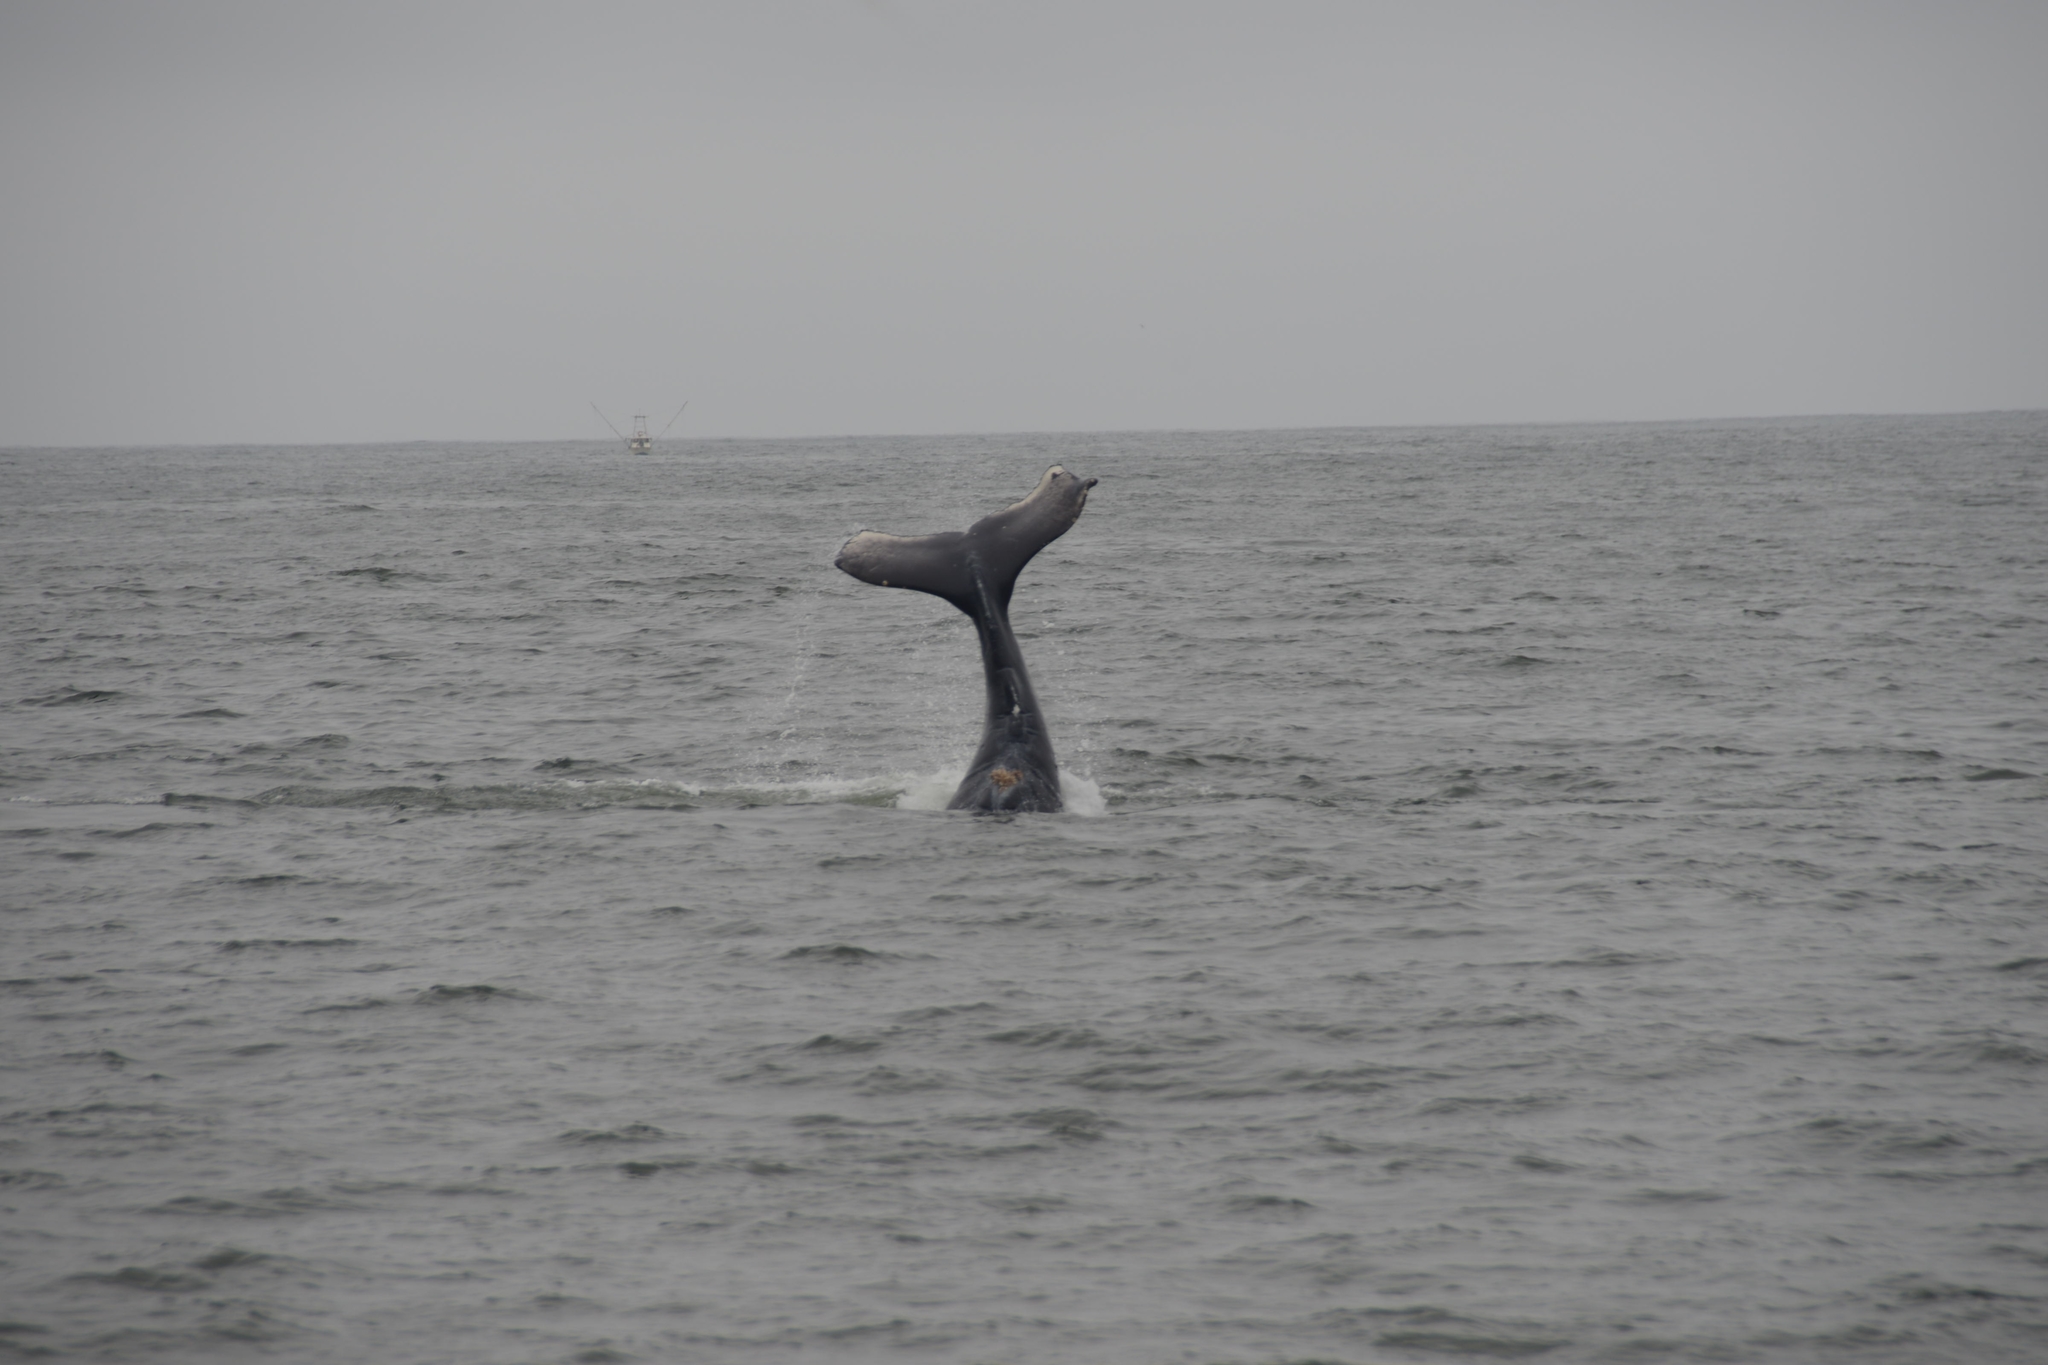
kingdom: Animalia
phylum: Chordata
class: Mammalia
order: Cetacea
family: Balaenopteridae
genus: Megaptera
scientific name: Megaptera novaeangliae
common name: Humpback whale
